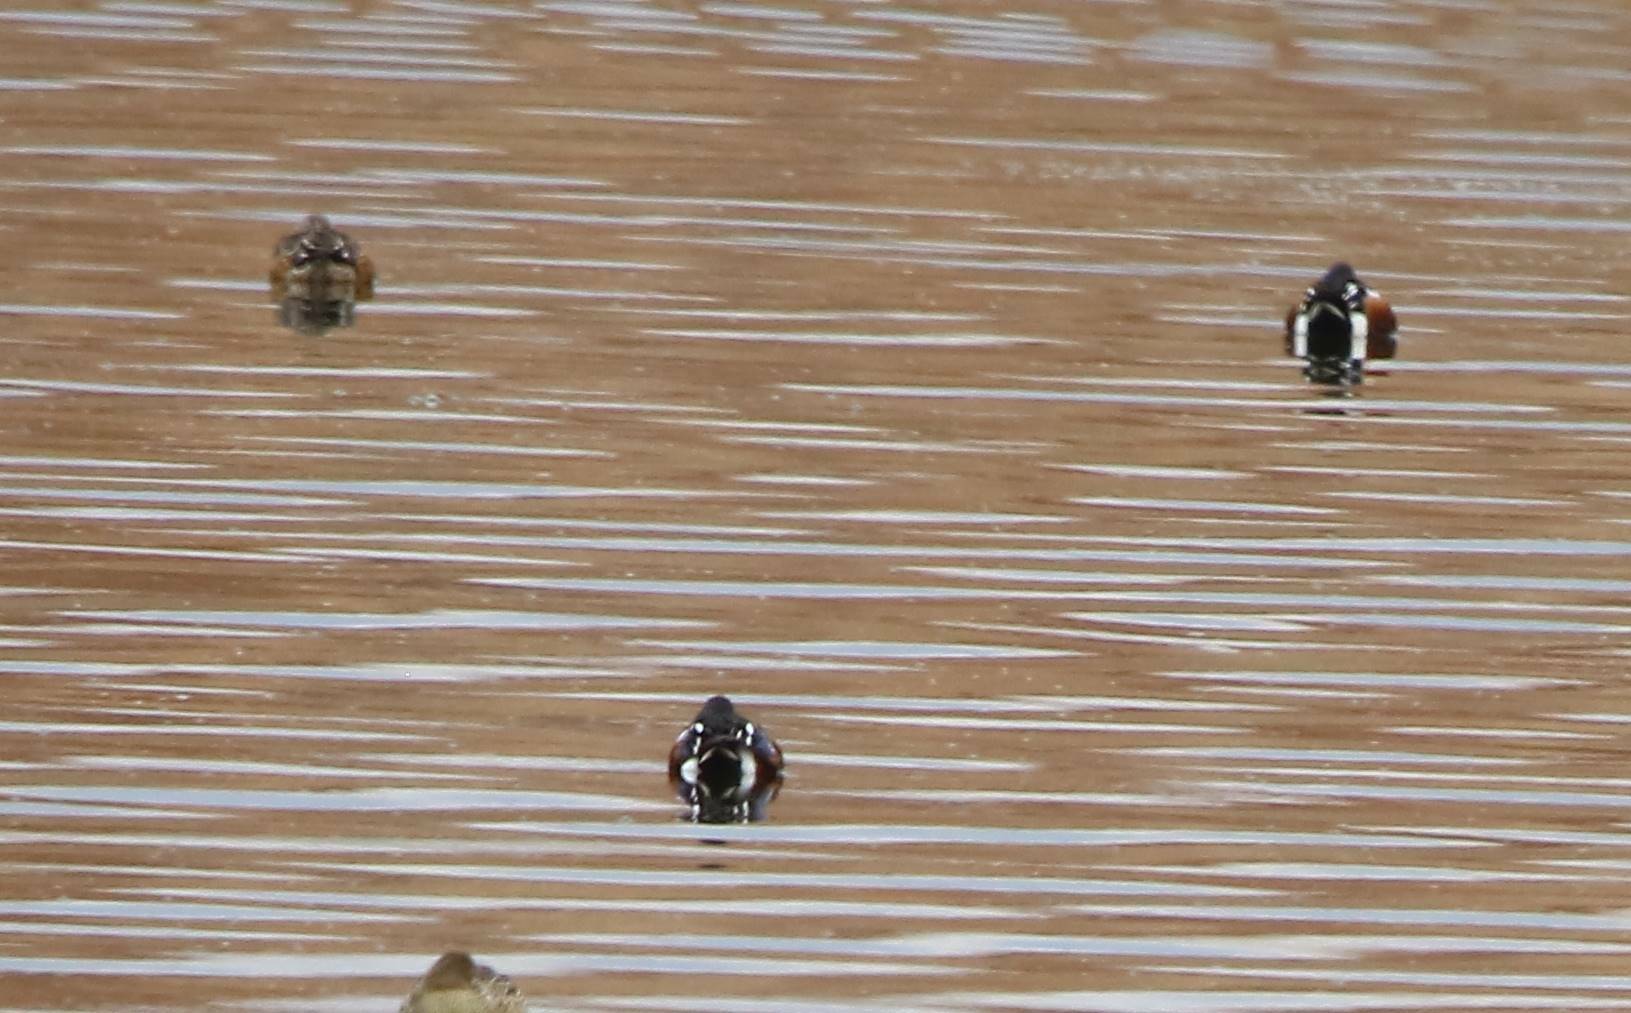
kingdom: Animalia
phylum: Chordata
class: Aves
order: Anseriformes
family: Anatidae
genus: Spatula
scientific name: Spatula clypeata
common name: Northern shoveler
